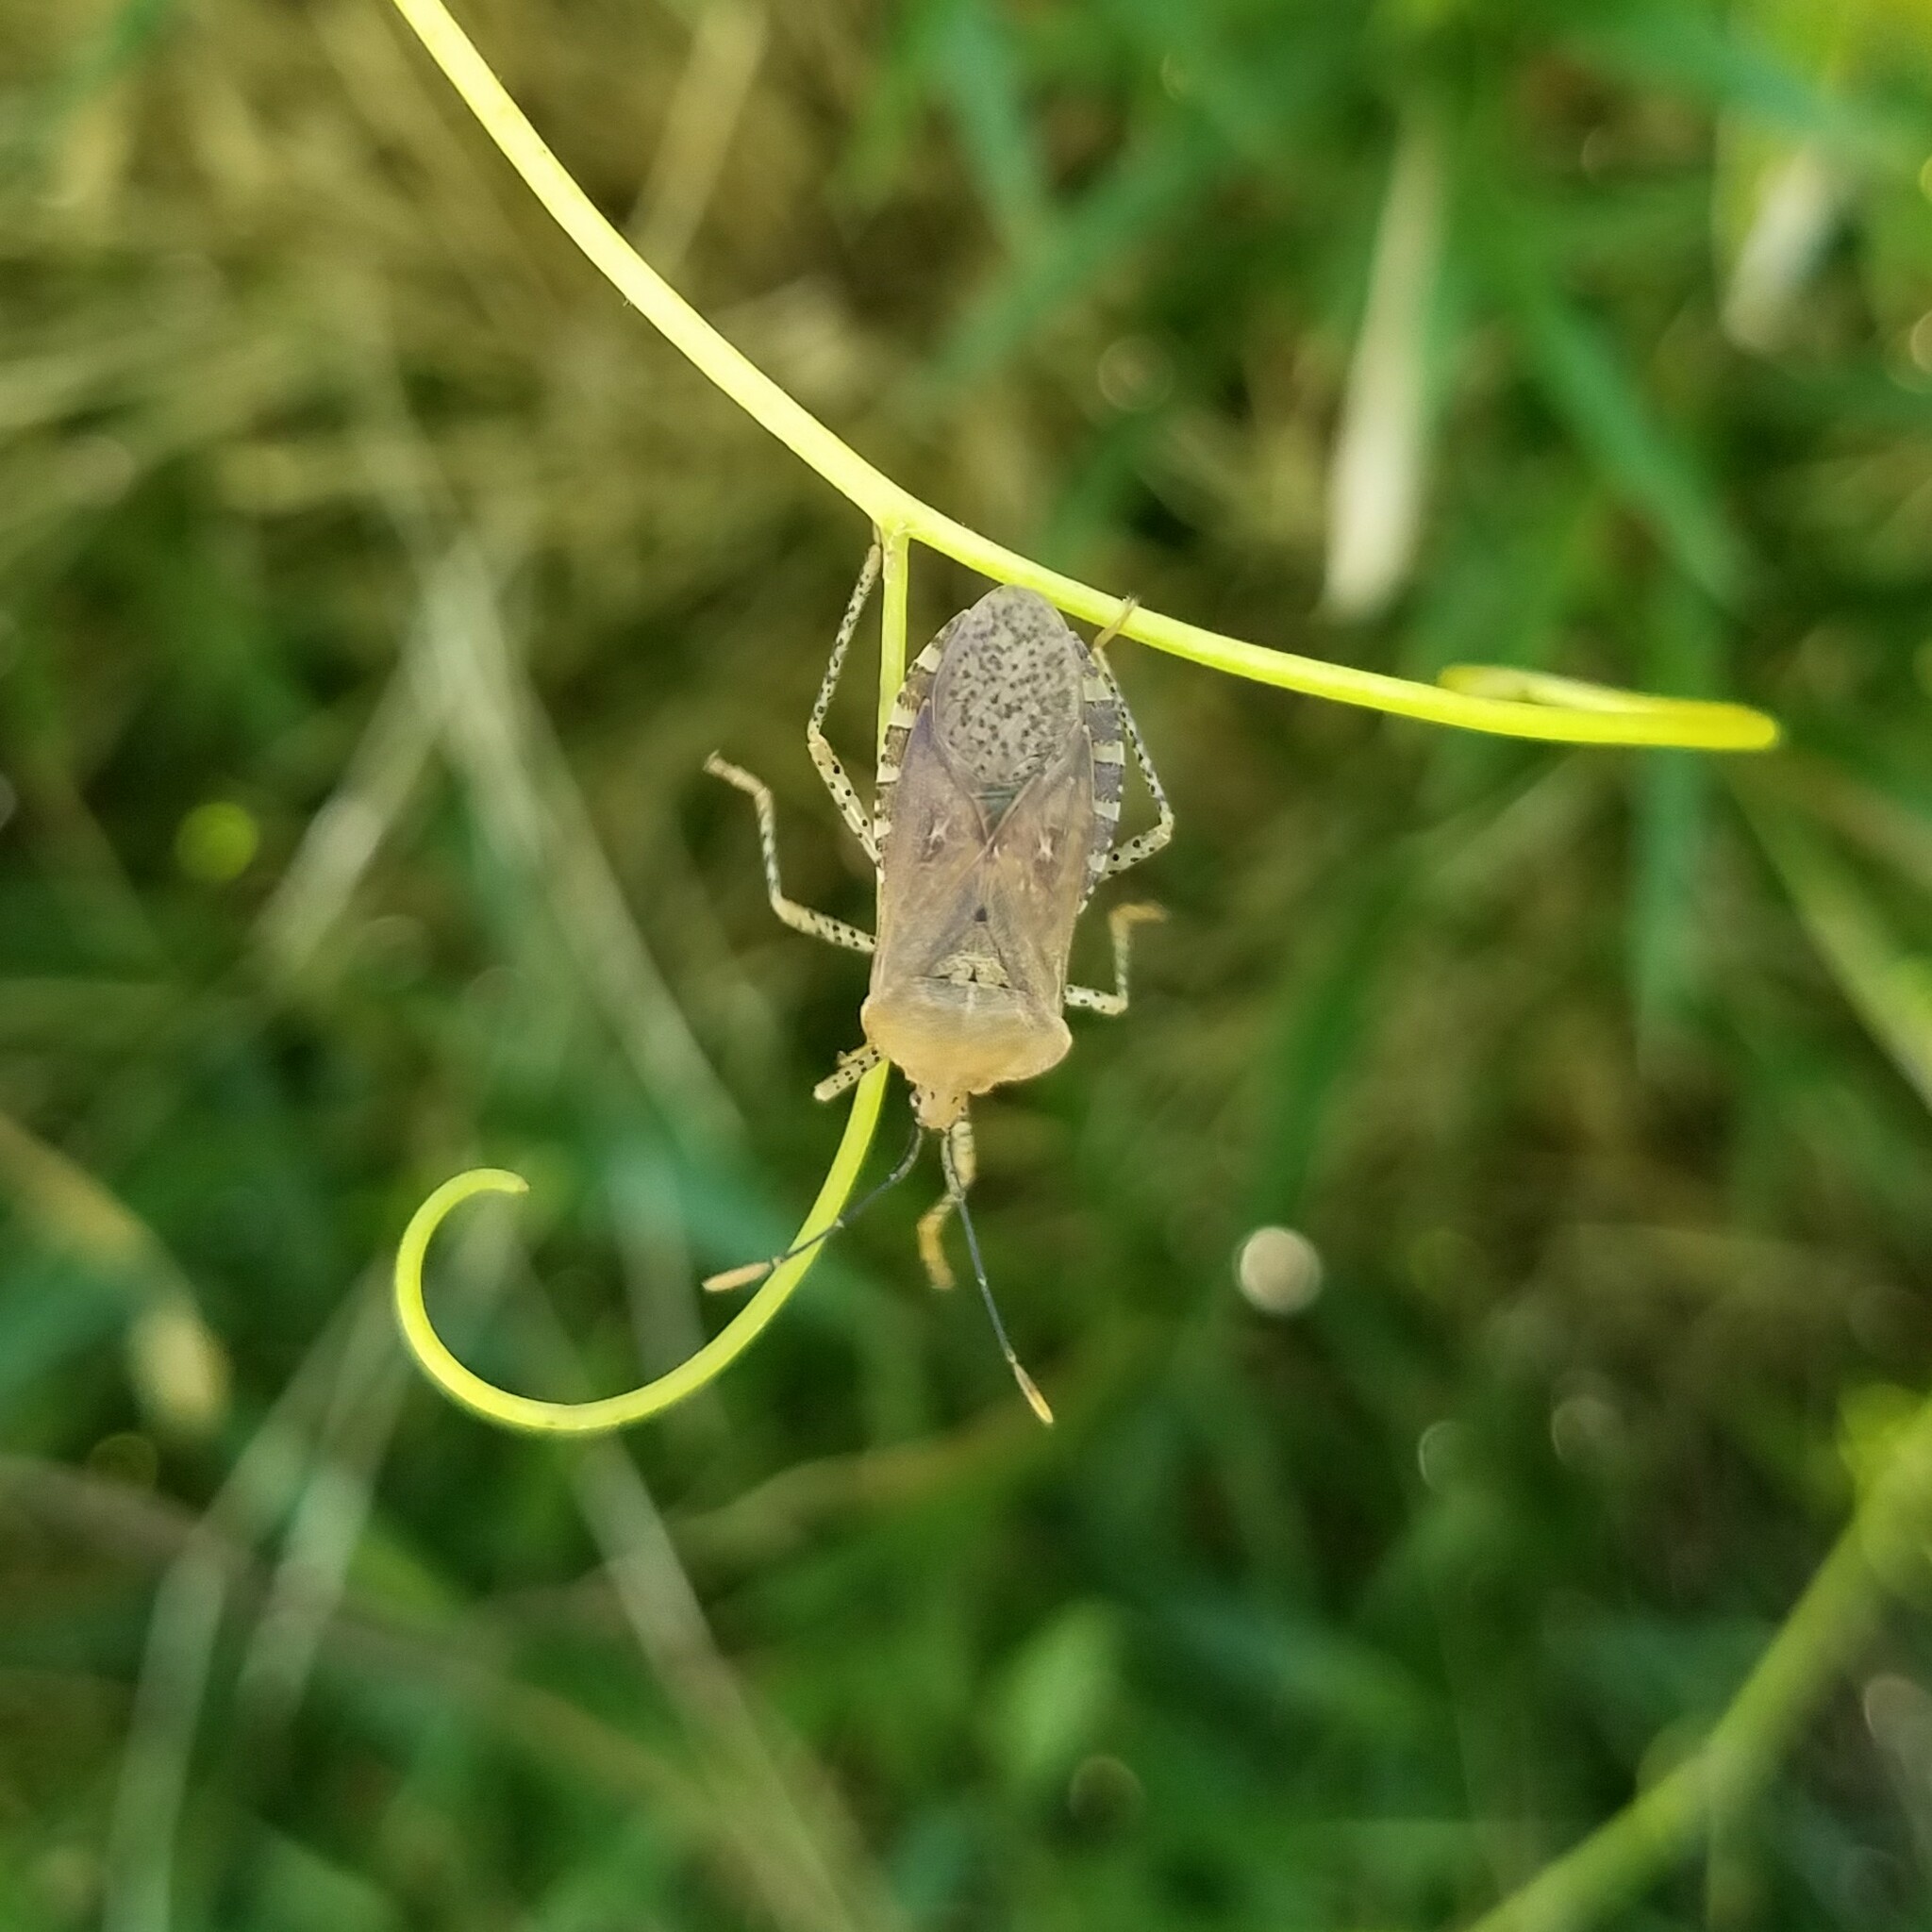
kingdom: Animalia
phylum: Arthropoda
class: Insecta
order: Hemiptera
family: Coreidae
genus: Anasa
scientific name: Anasa repetita
